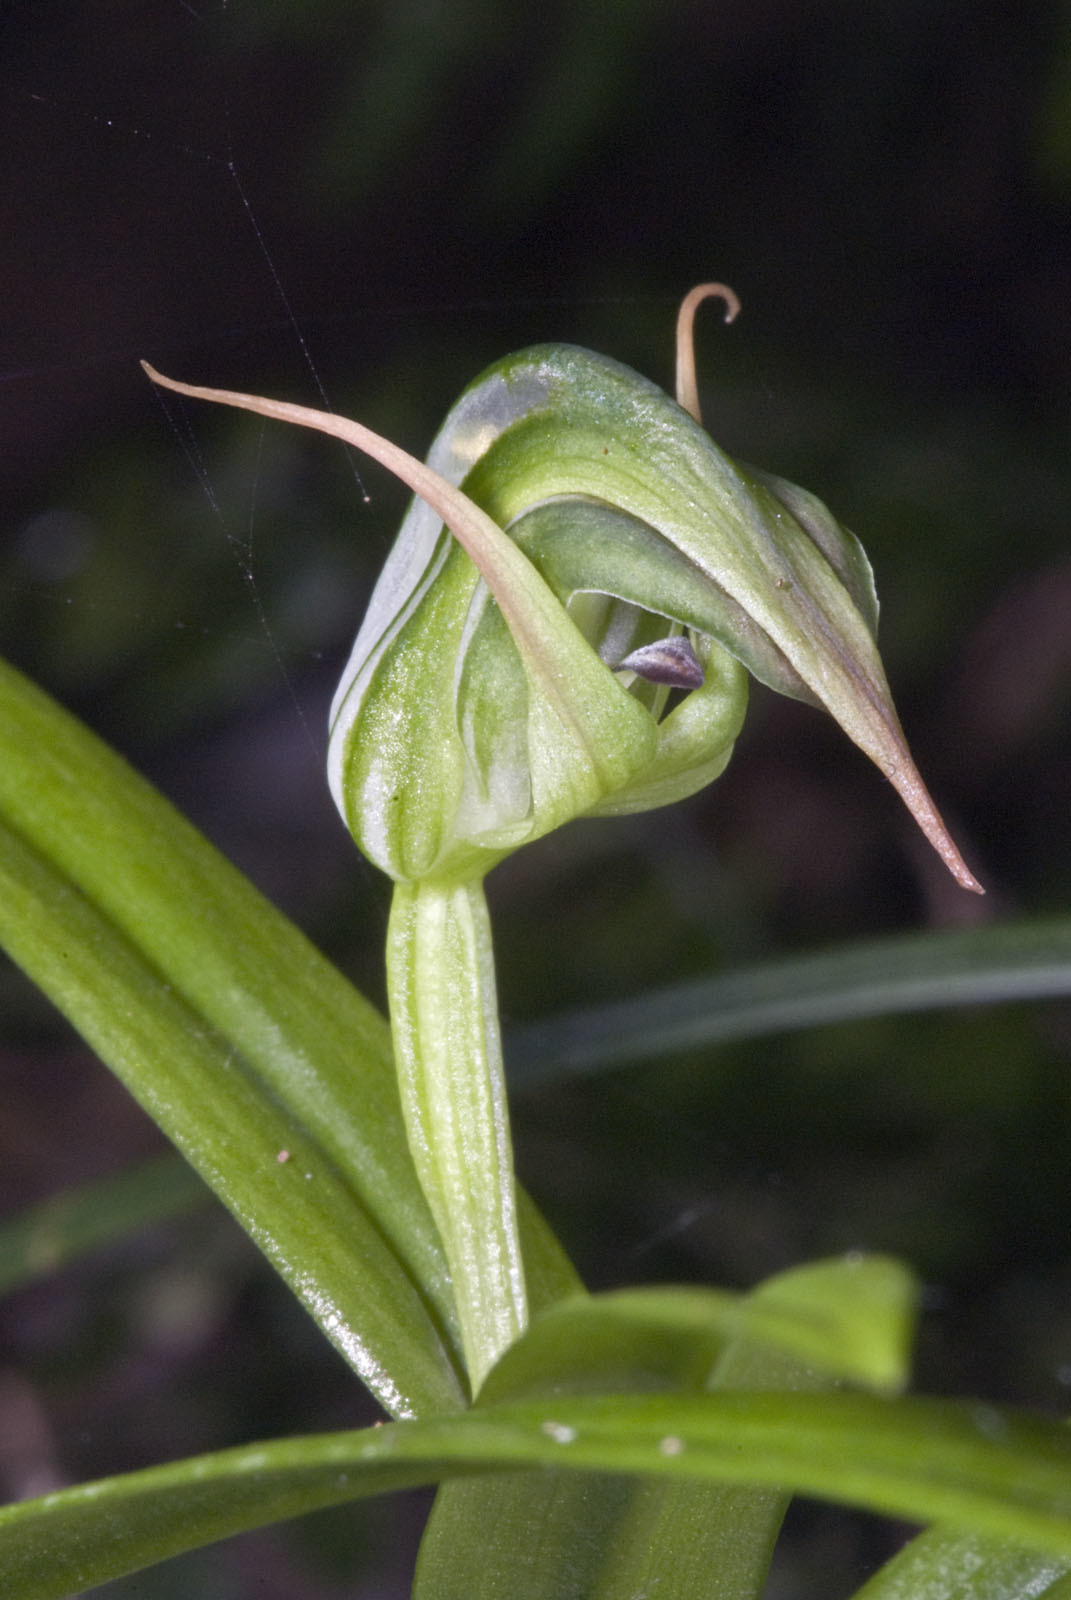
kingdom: Plantae
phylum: Tracheophyta
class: Liliopsida
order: Asparagales
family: Orchidaceae
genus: Pterostylis
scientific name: Pterostylis auriculata
